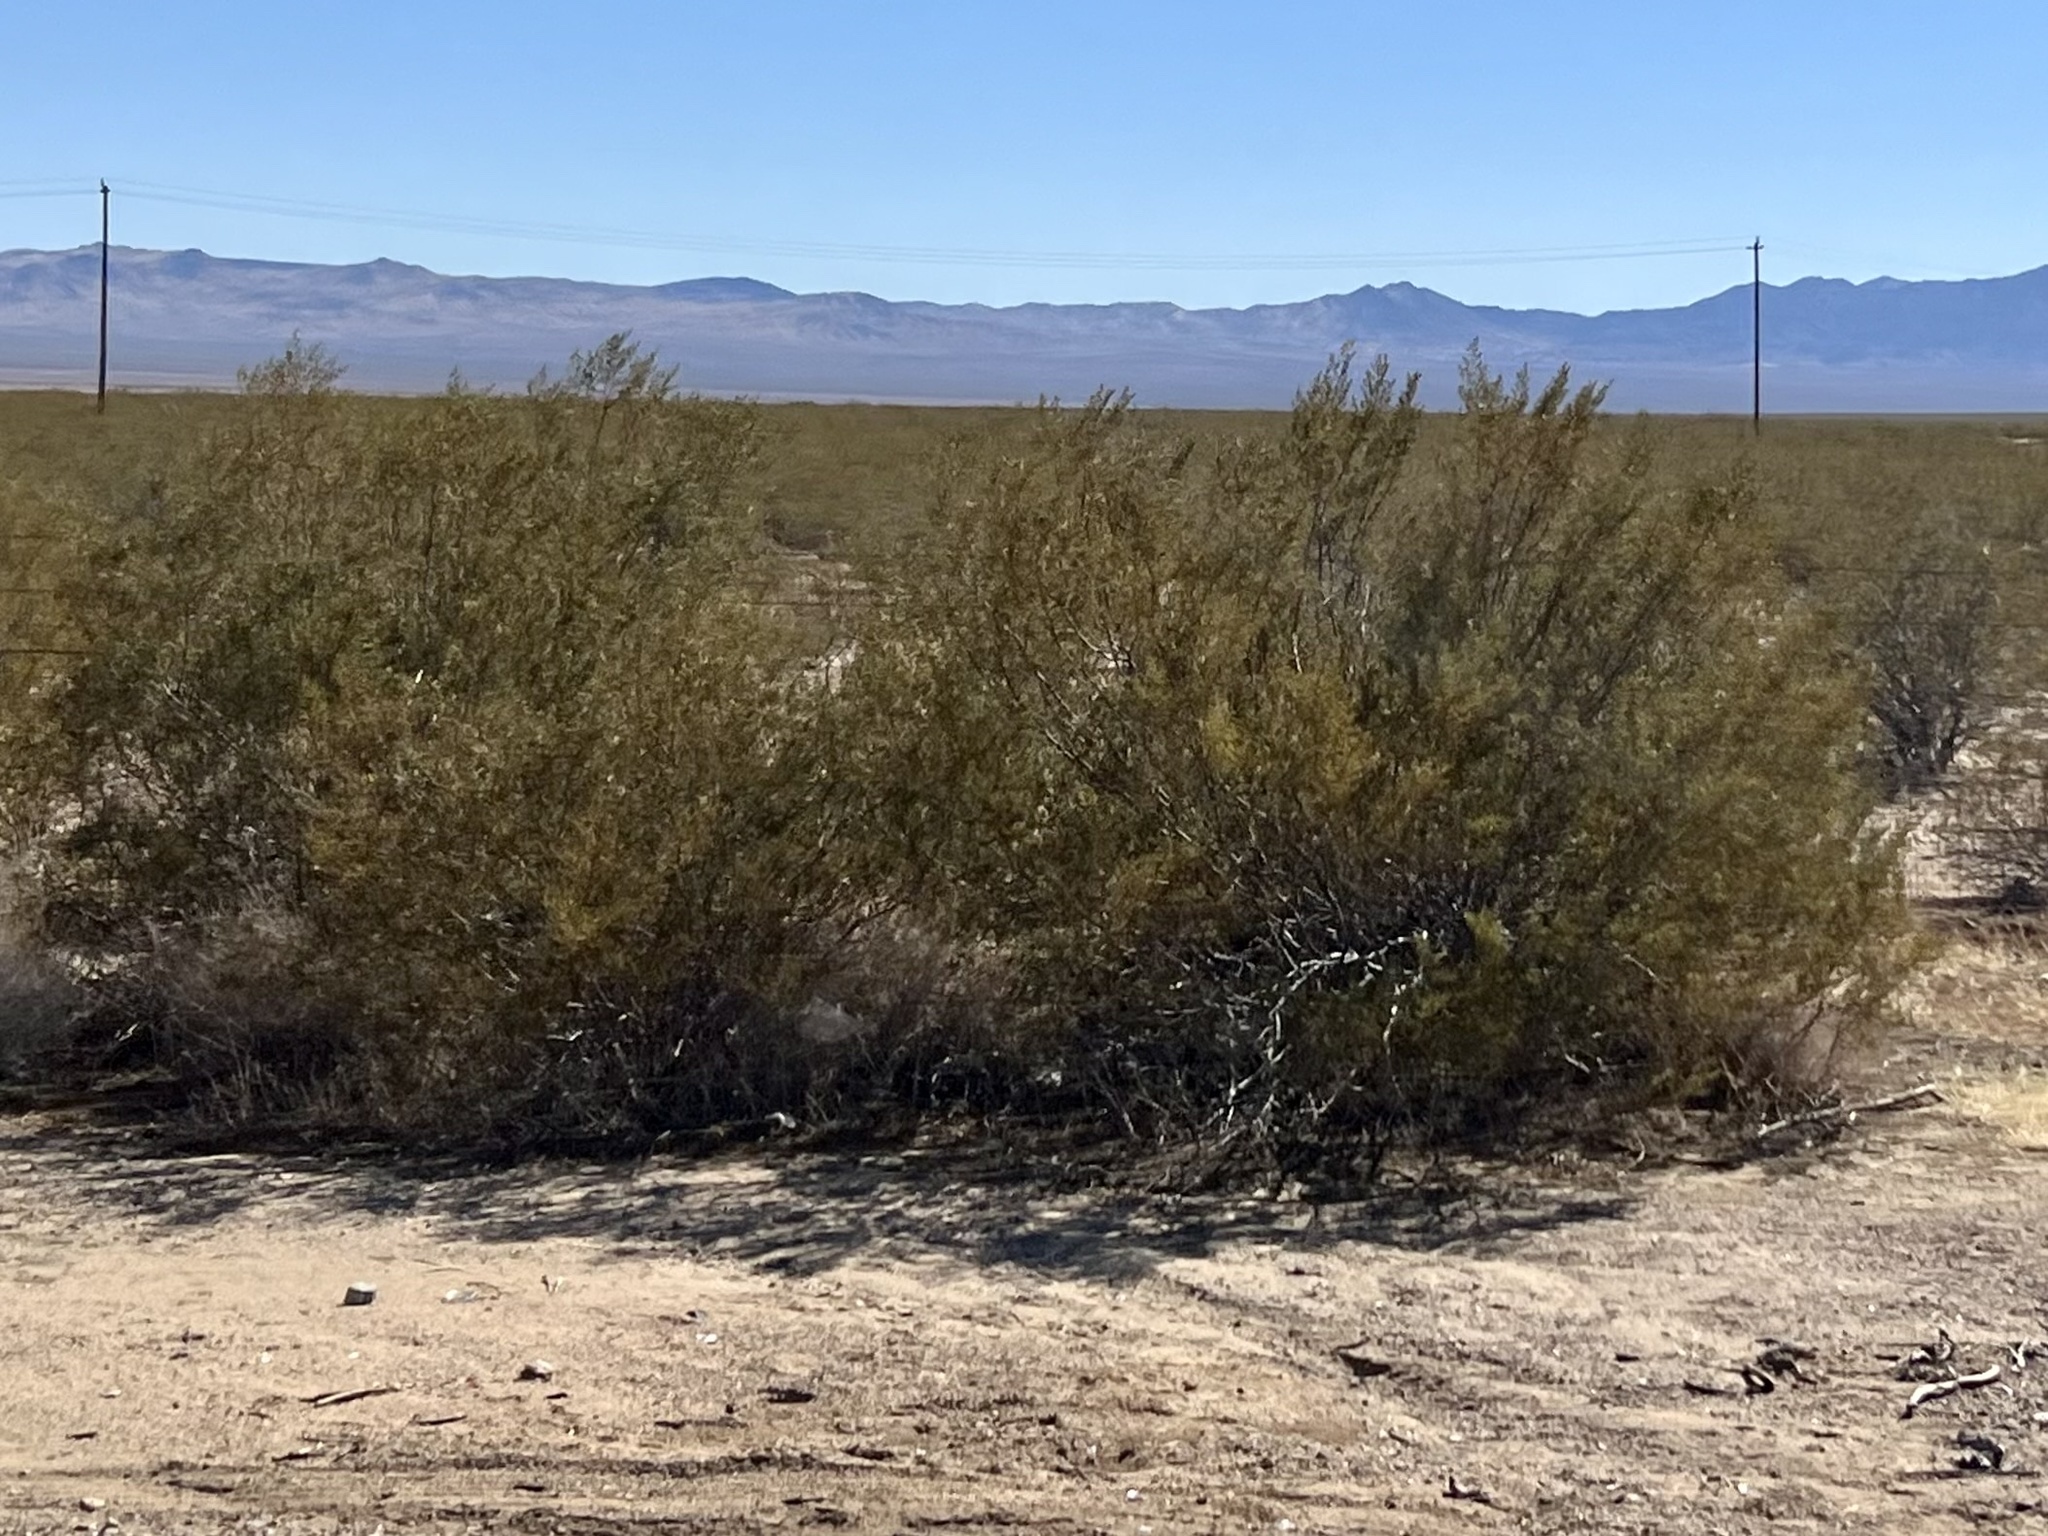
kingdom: Plantae
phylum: Tracheophyta
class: Magnoliopsida
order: Zygophyllales
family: Zygophyllaceae
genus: Larrea
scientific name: Larrea tridentata
